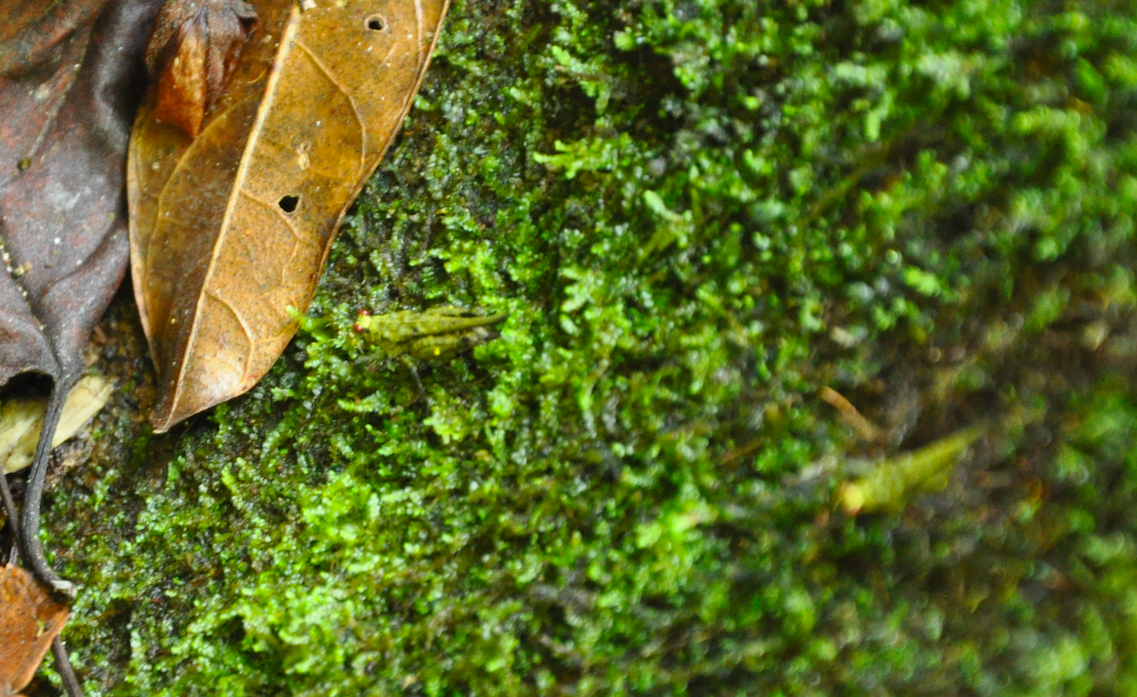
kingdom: Animalia
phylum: Arthropoda
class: Insecta
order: Orthoptera
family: Tetrigidae
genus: Oxytettix
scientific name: Oxytettix arius
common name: Yellow-dot black pygmy grasshopper
